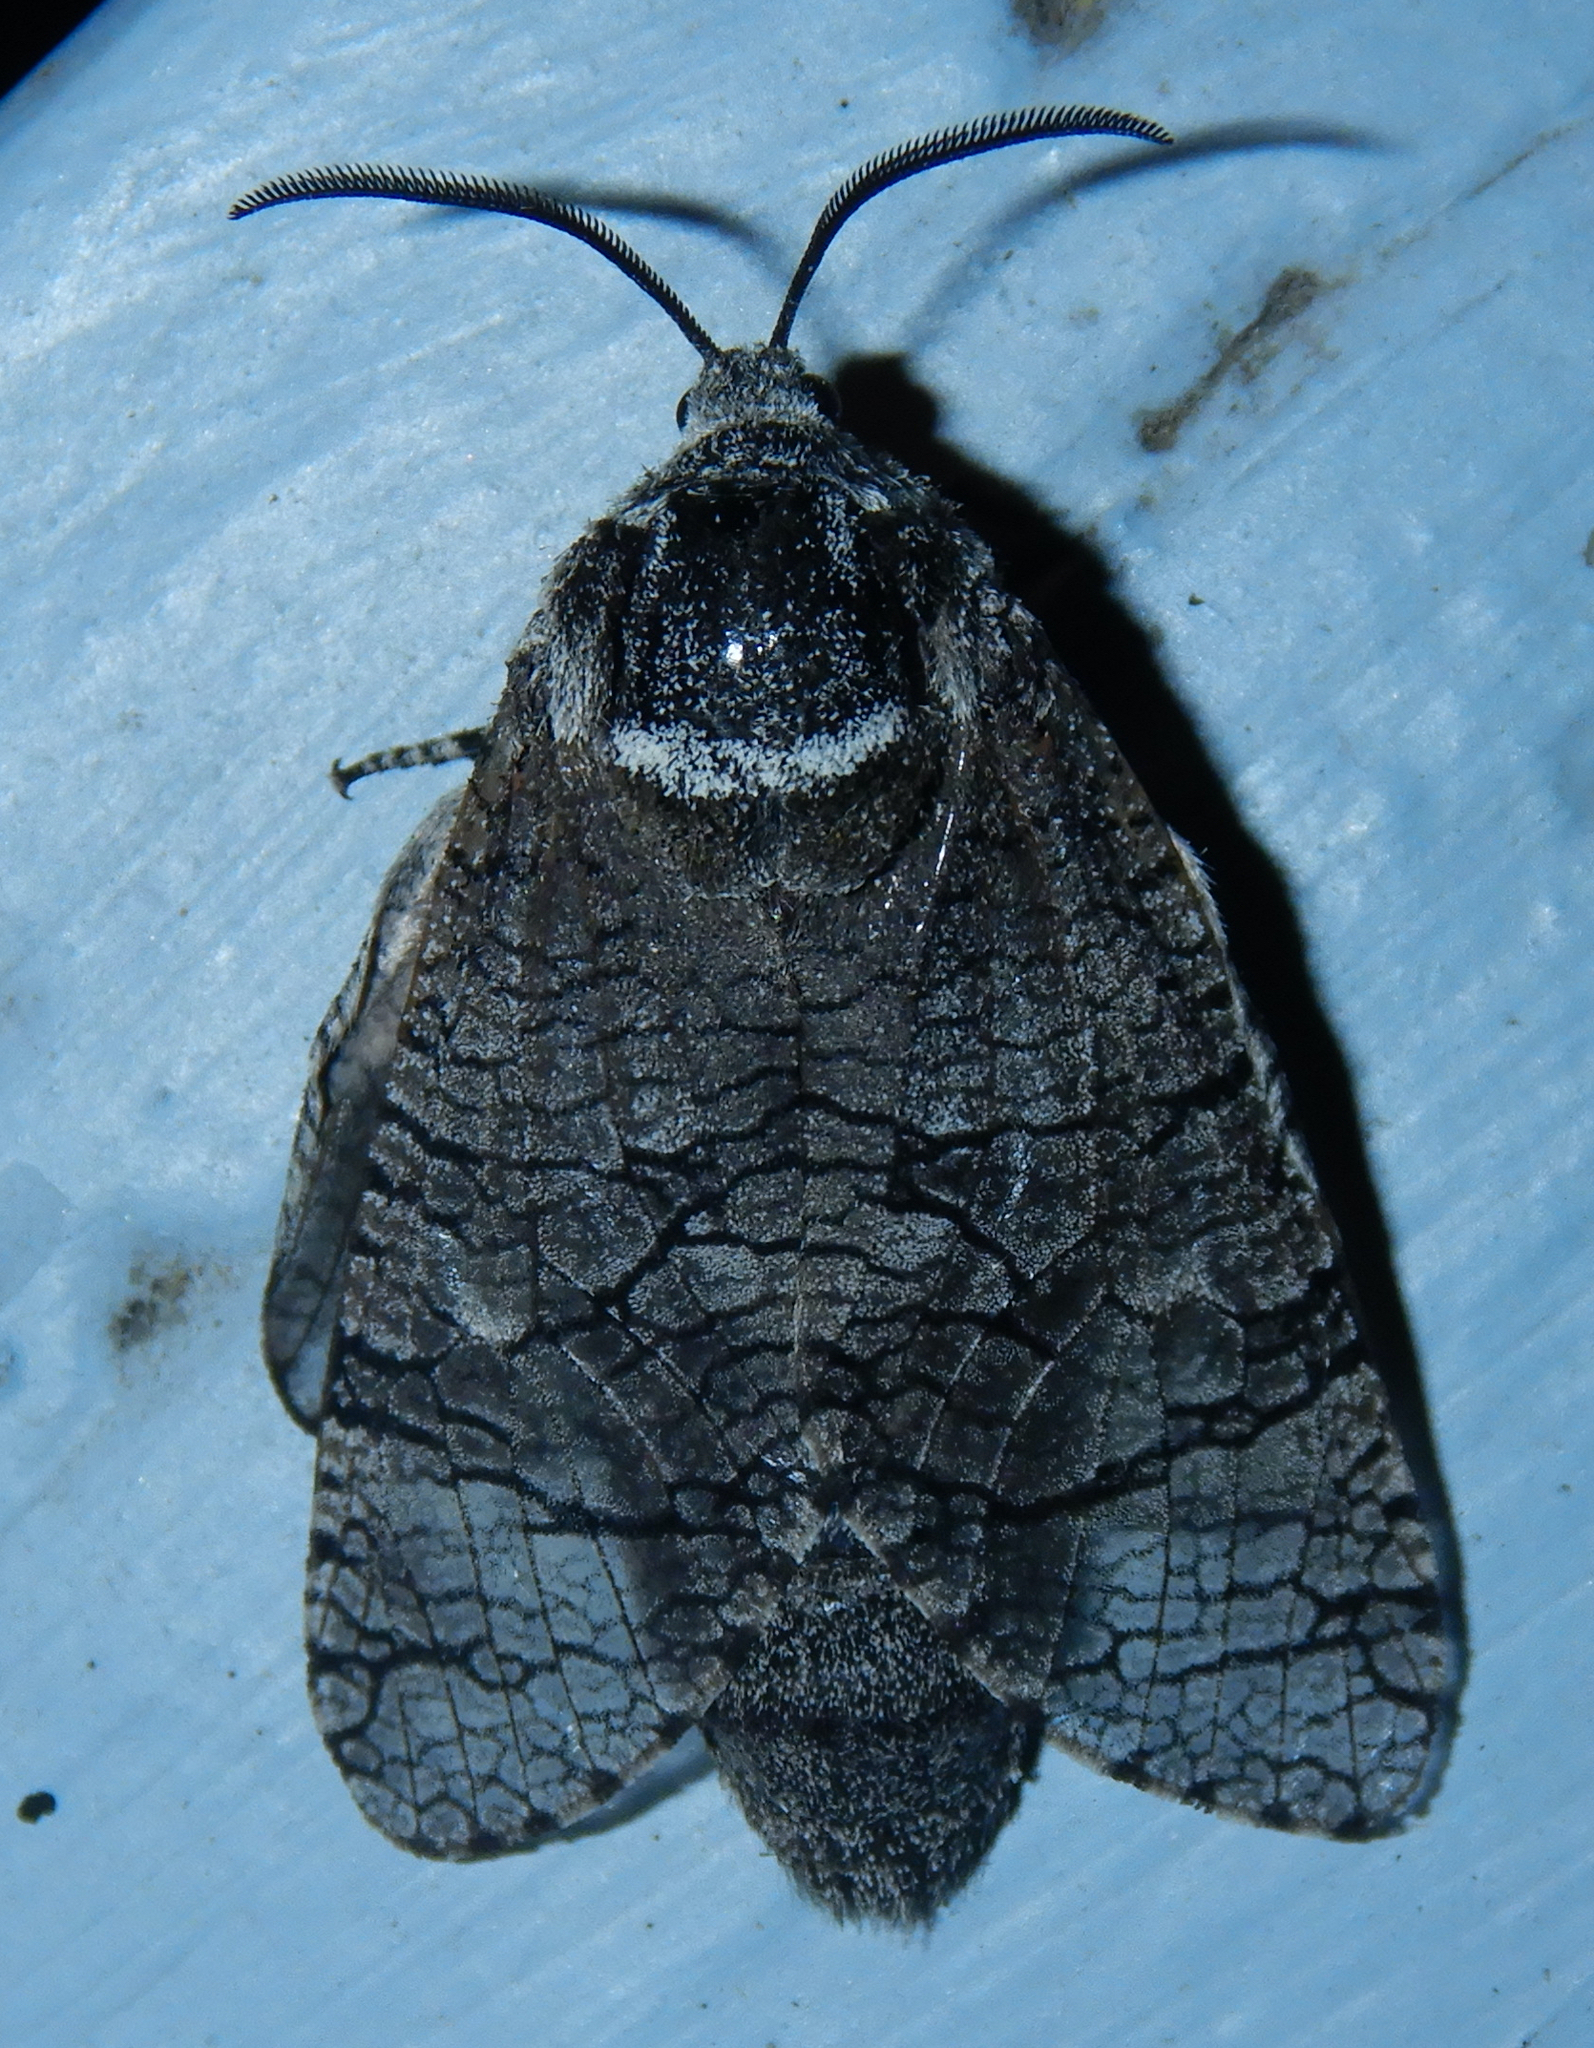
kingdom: Animalia
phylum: Arthropoda
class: Insecta
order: Lepidoptera
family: Cossidae
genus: Prionoxystus
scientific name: Prionoxystus macmurtrei
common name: Little carpenterworm
